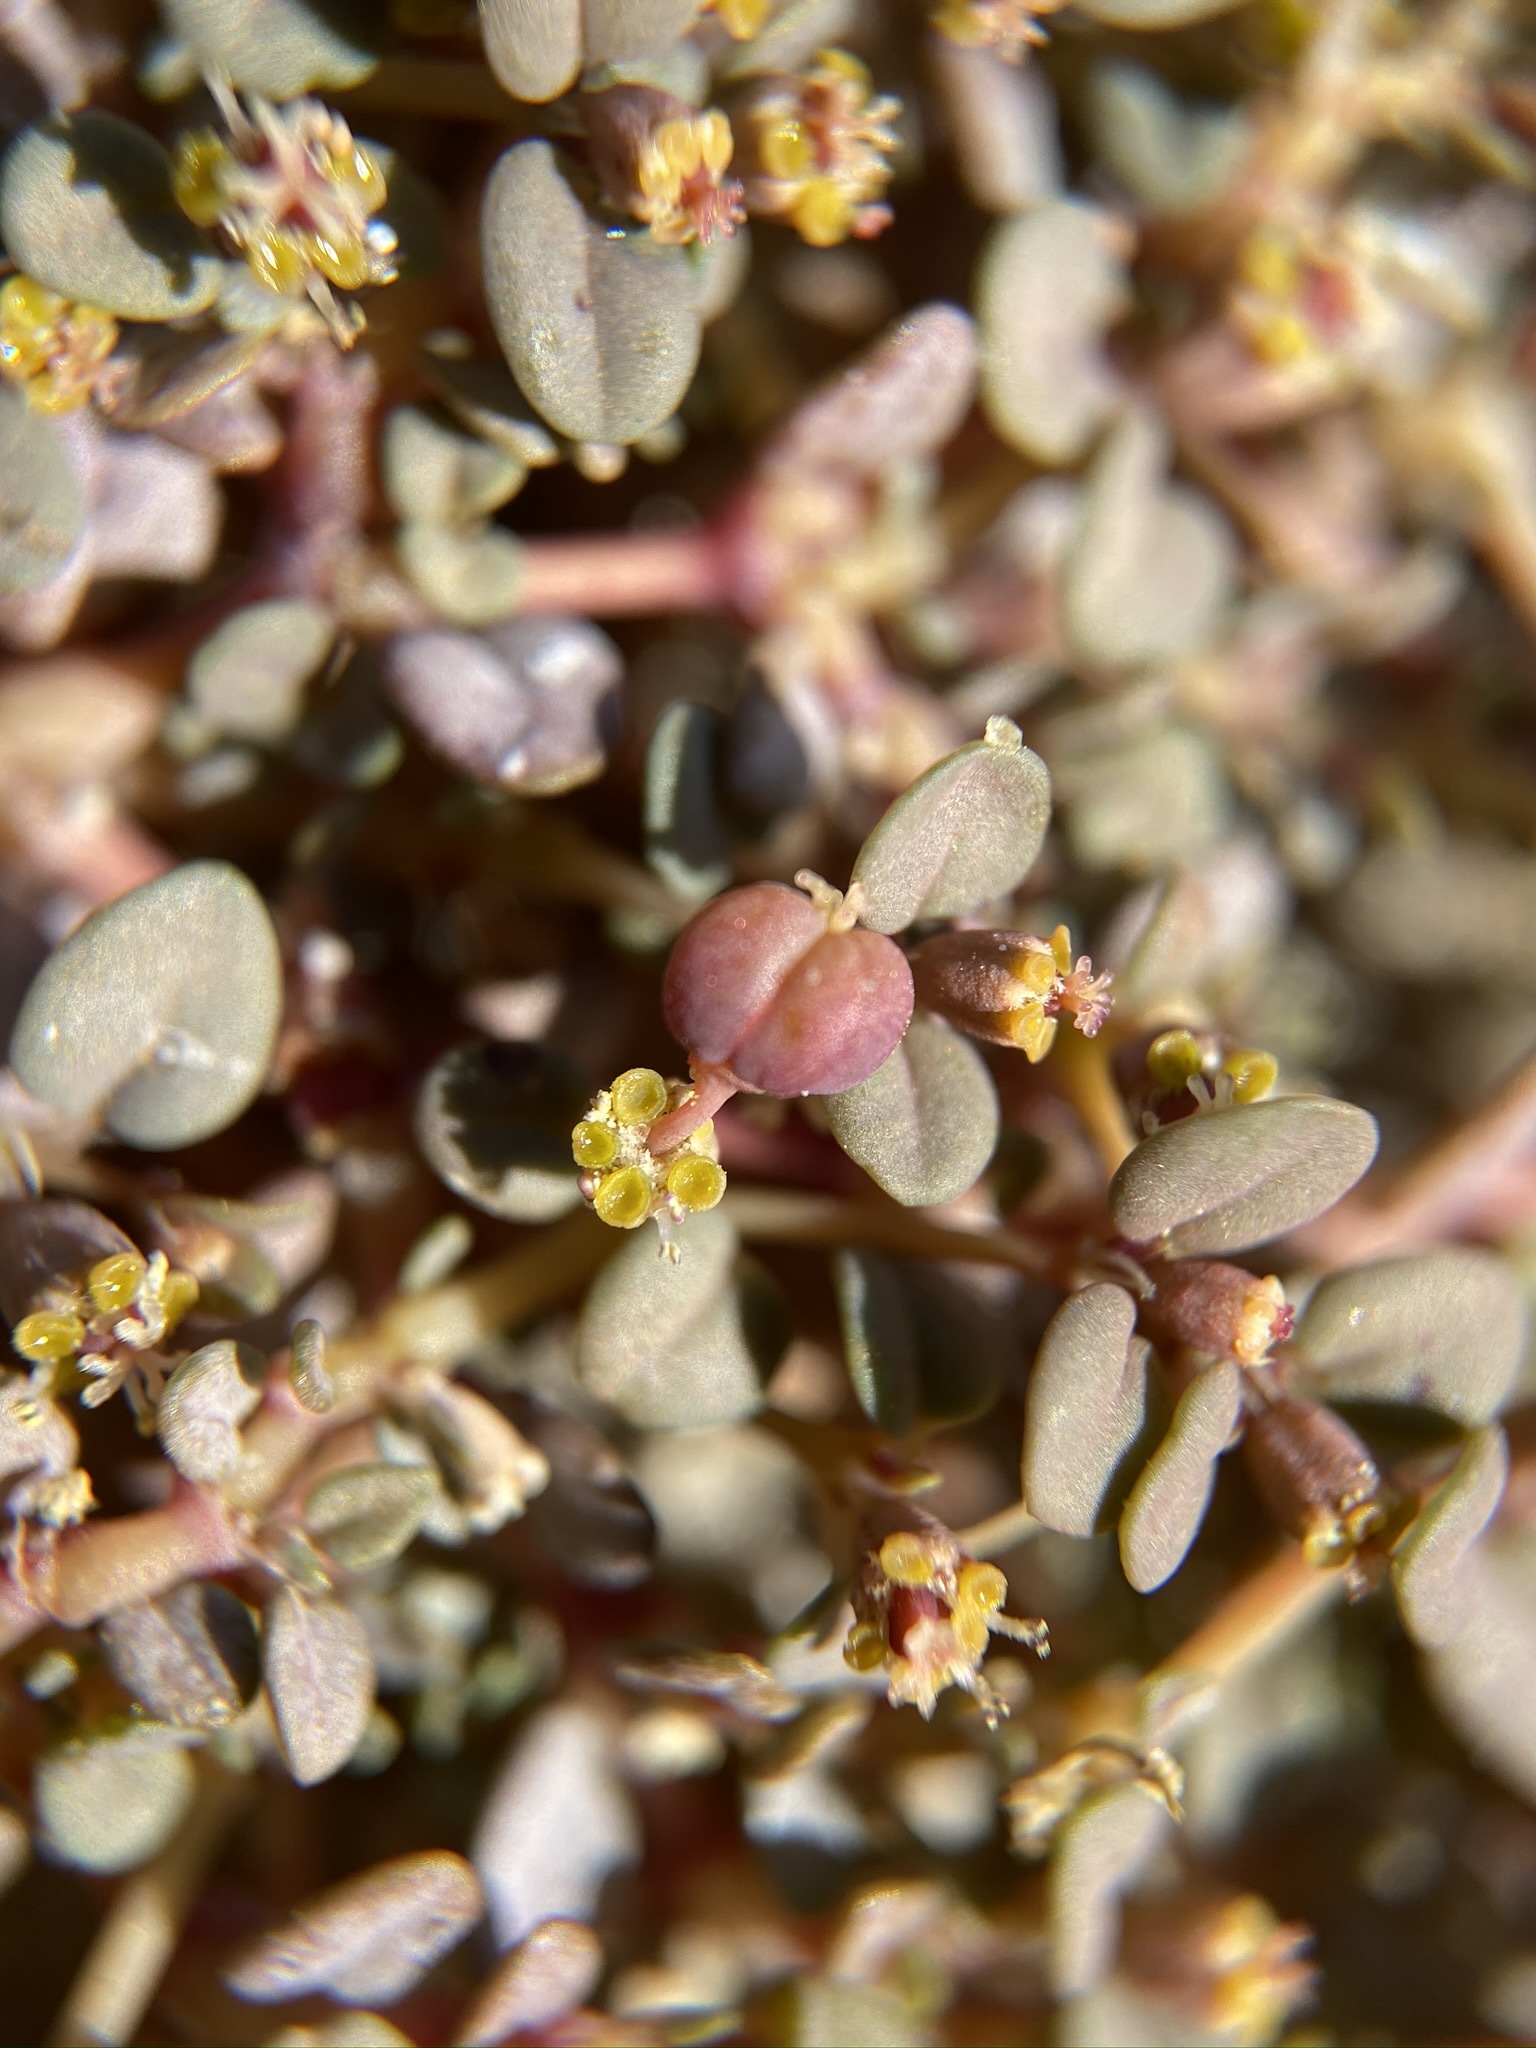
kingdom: Plantae
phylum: Tracheophyta
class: Magnoliopsida
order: Malpighiales
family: Euphorbiaceae
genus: Euphorbia
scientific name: Euphorbia parishii
